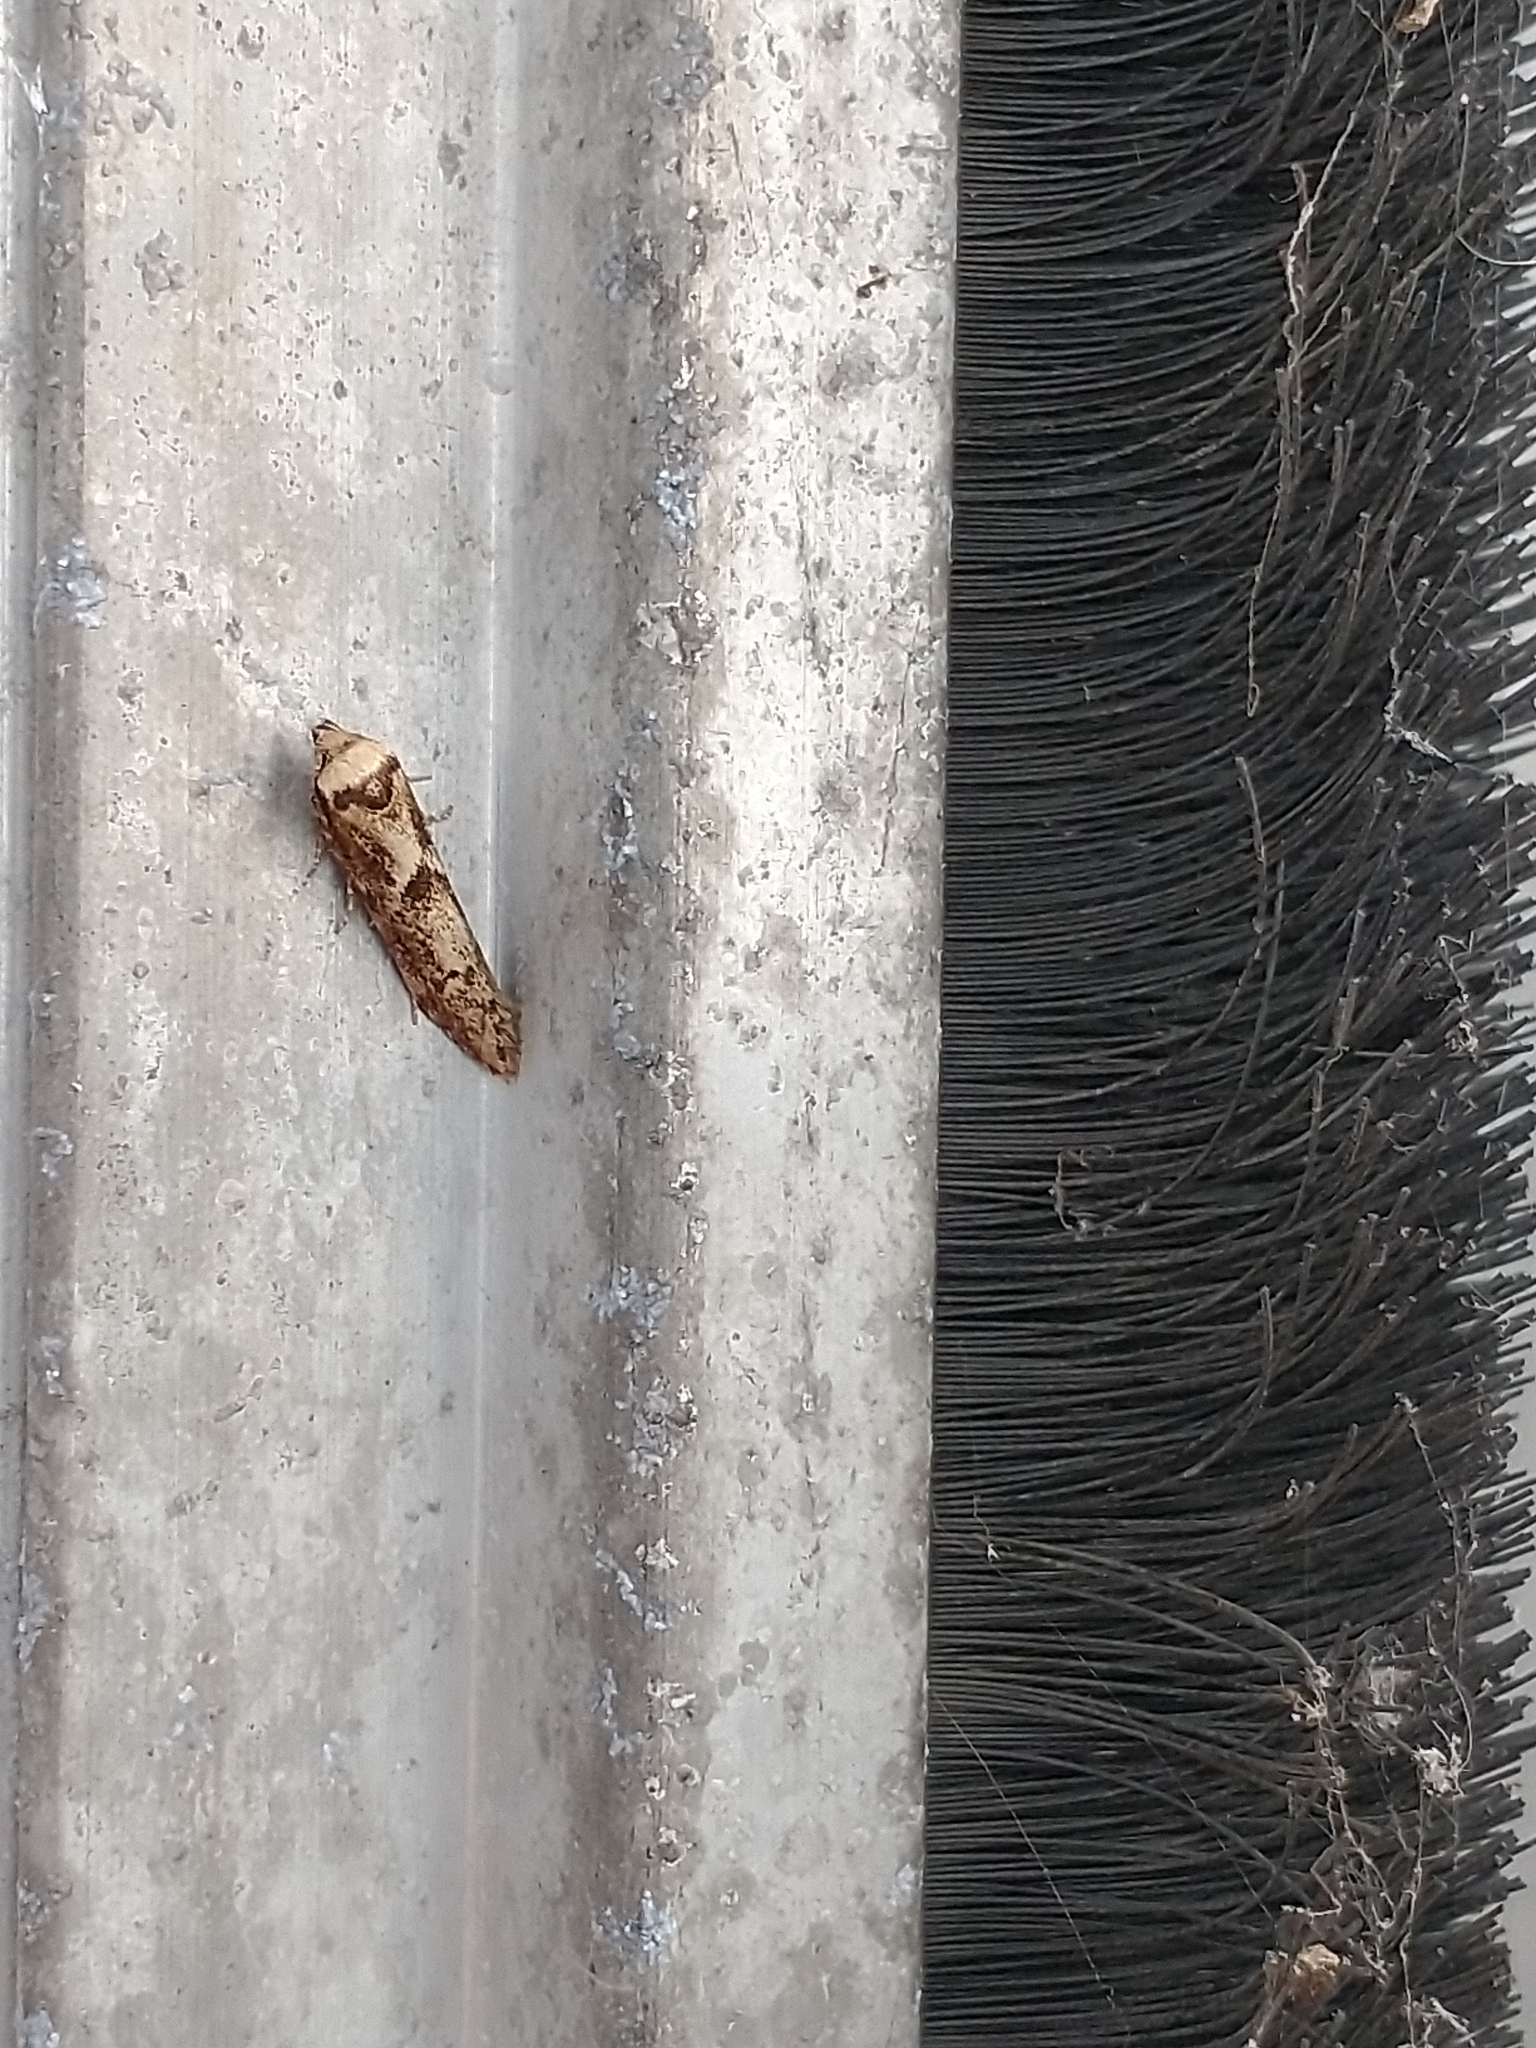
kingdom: Animalia
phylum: Arthropoda
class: Insecta
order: Lepidoptera
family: Blastobasidae
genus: Blastobasis
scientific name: Blastobasis adustella
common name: Dingy dowd
